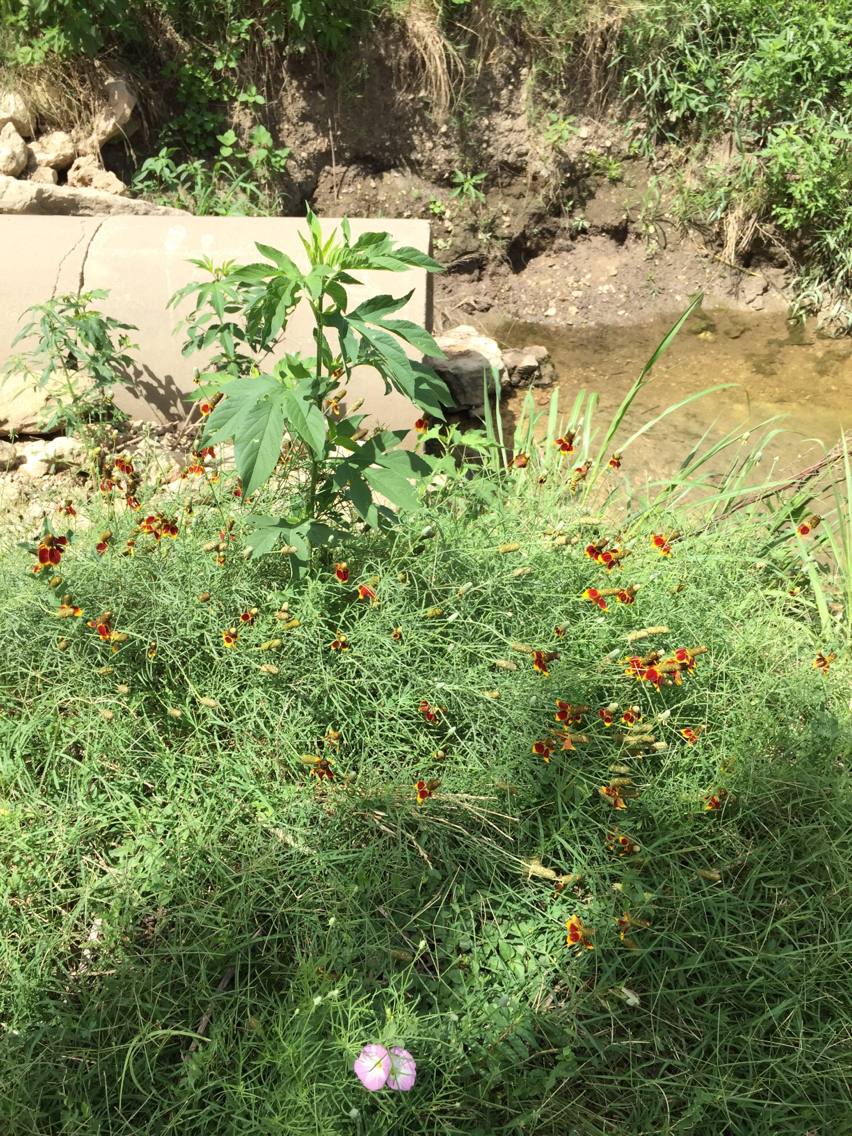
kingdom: Plantae
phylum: Tracheophyta
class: Magnoliopsida
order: Asterales
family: Asteraceae
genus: Ratibida
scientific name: Ratibida columnifera
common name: Prairie coneflower
